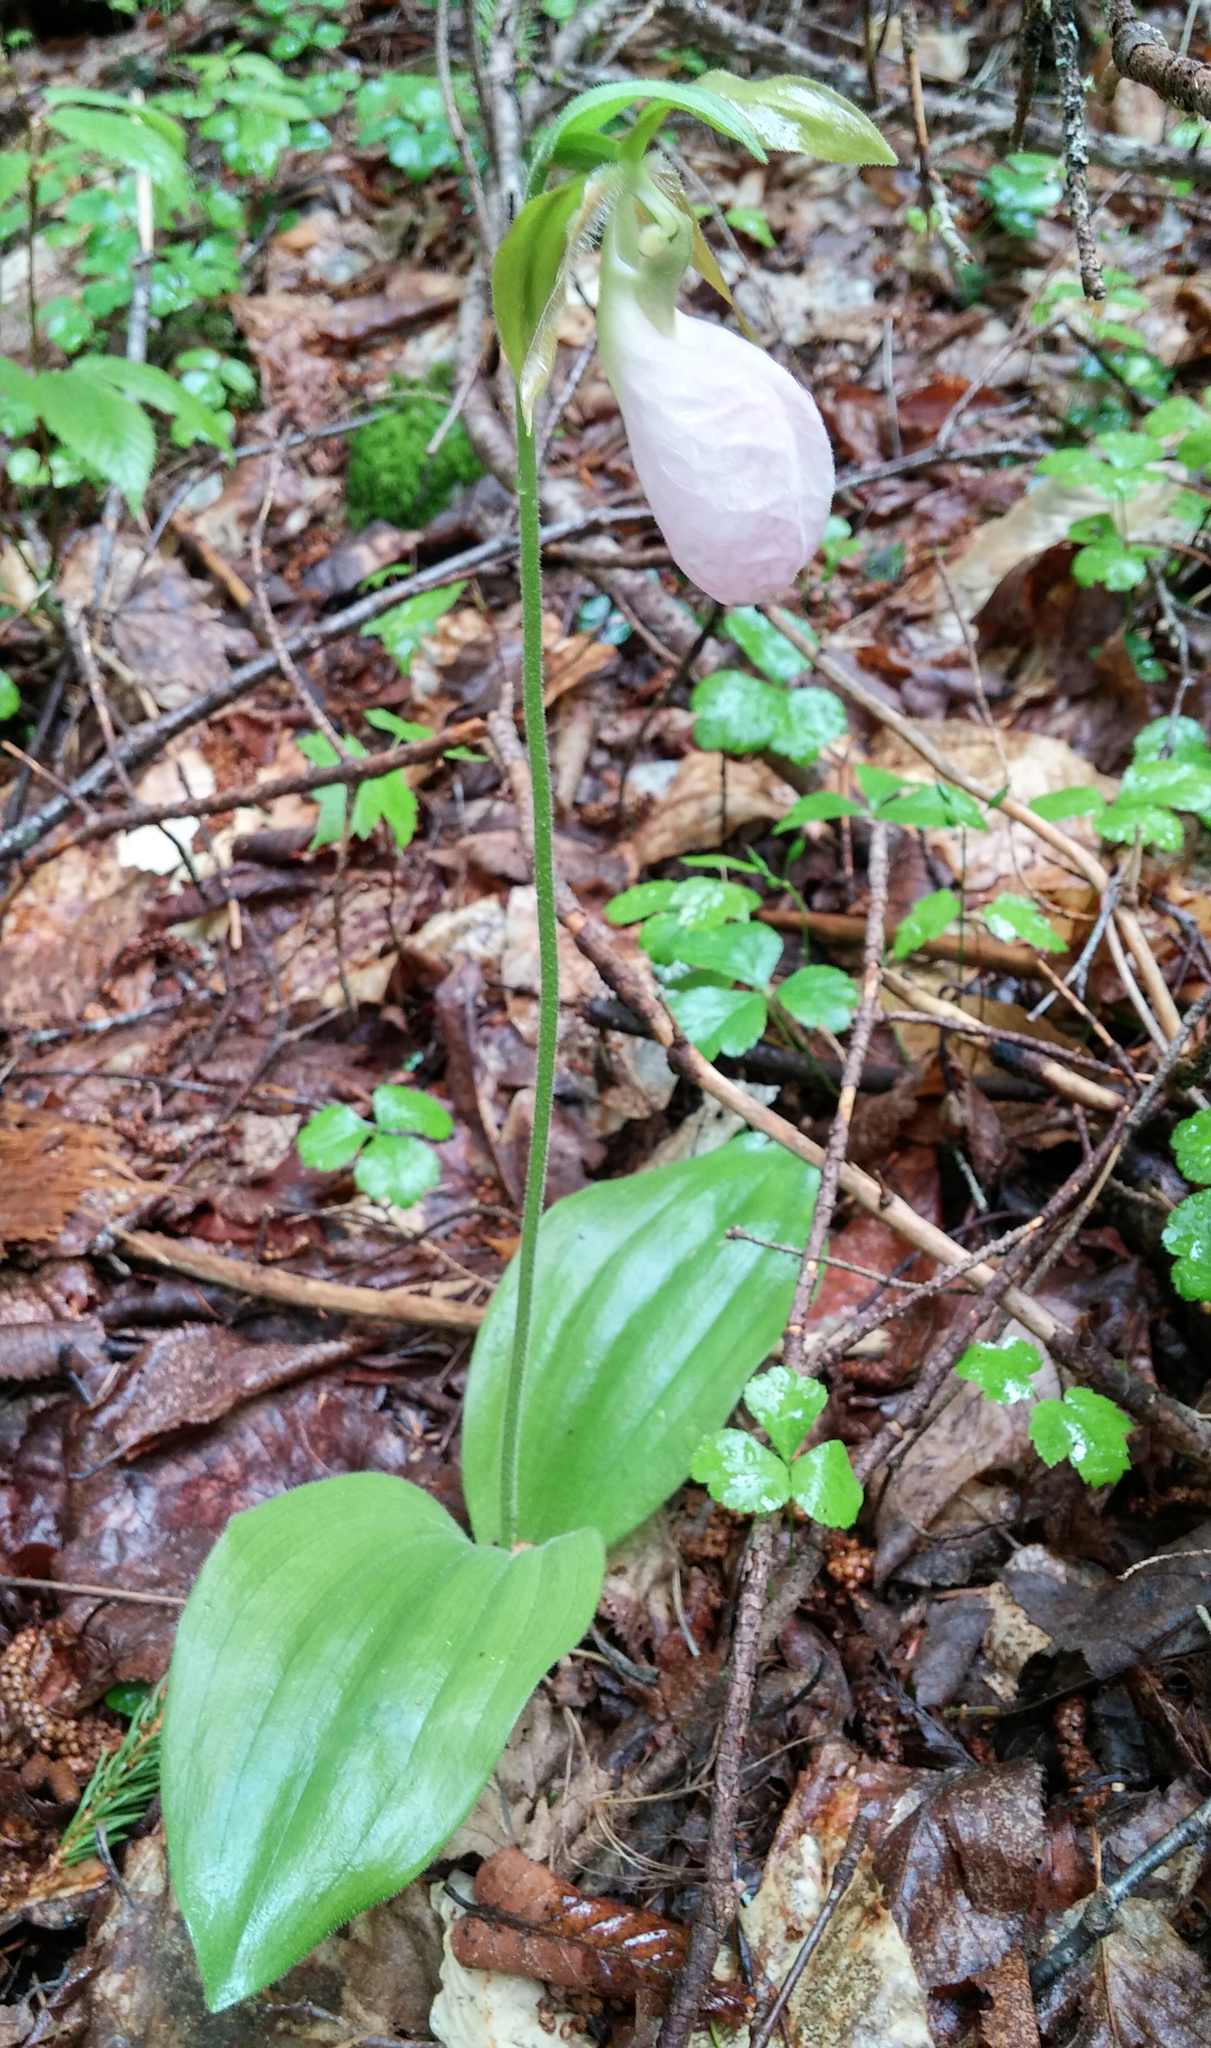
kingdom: Plantae
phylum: Tracheophyta
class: Liliopsida
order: Asparagales
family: Orchidaceae
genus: Cypripedium
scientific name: Cypripedium acaule
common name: Pink lady's-slipper
